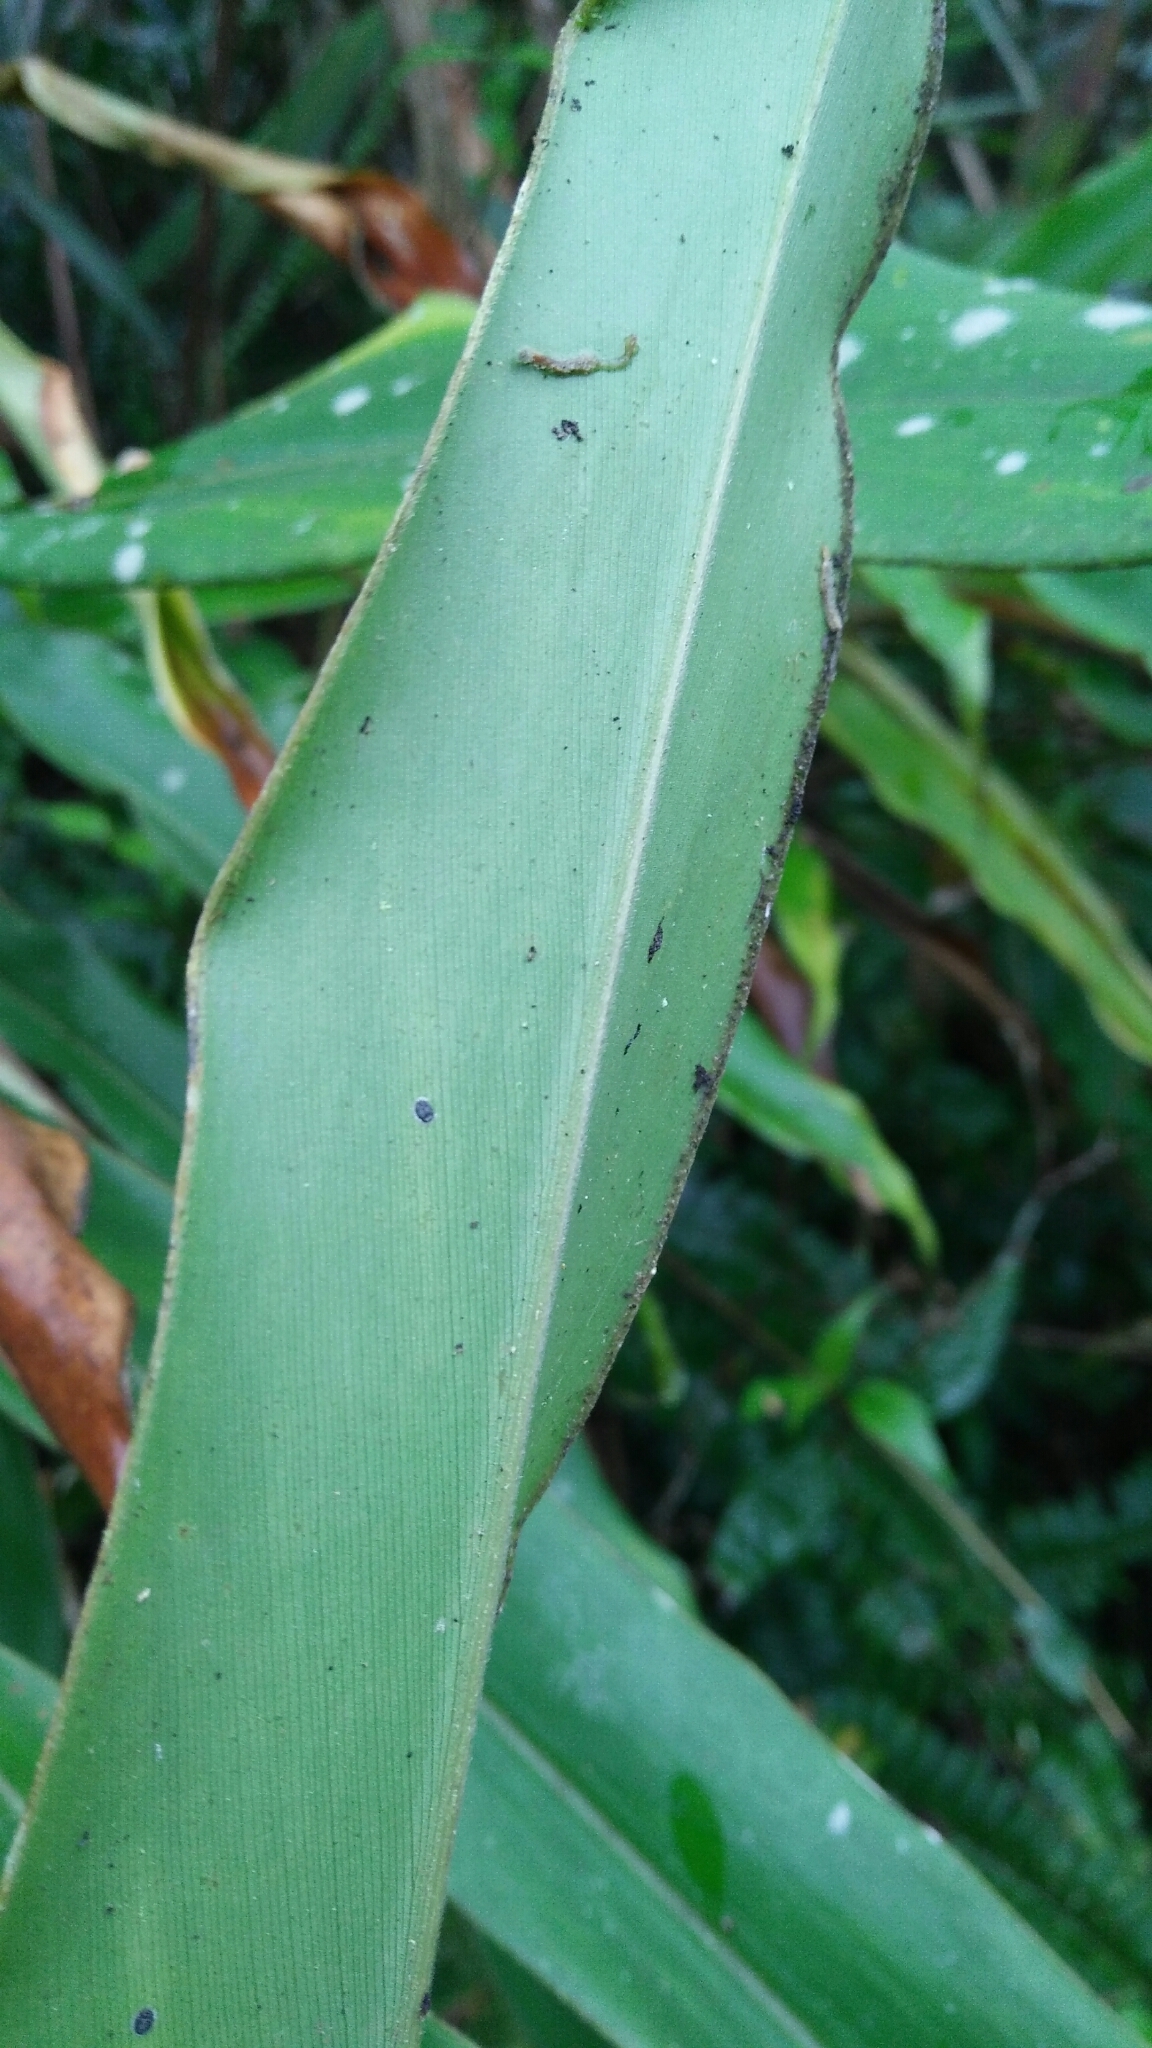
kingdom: Plantae
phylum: Tracheophyta
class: Liliopsida
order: Zingiberales
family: Zingiberaceae
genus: Alpinia
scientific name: Alpinia pricei
